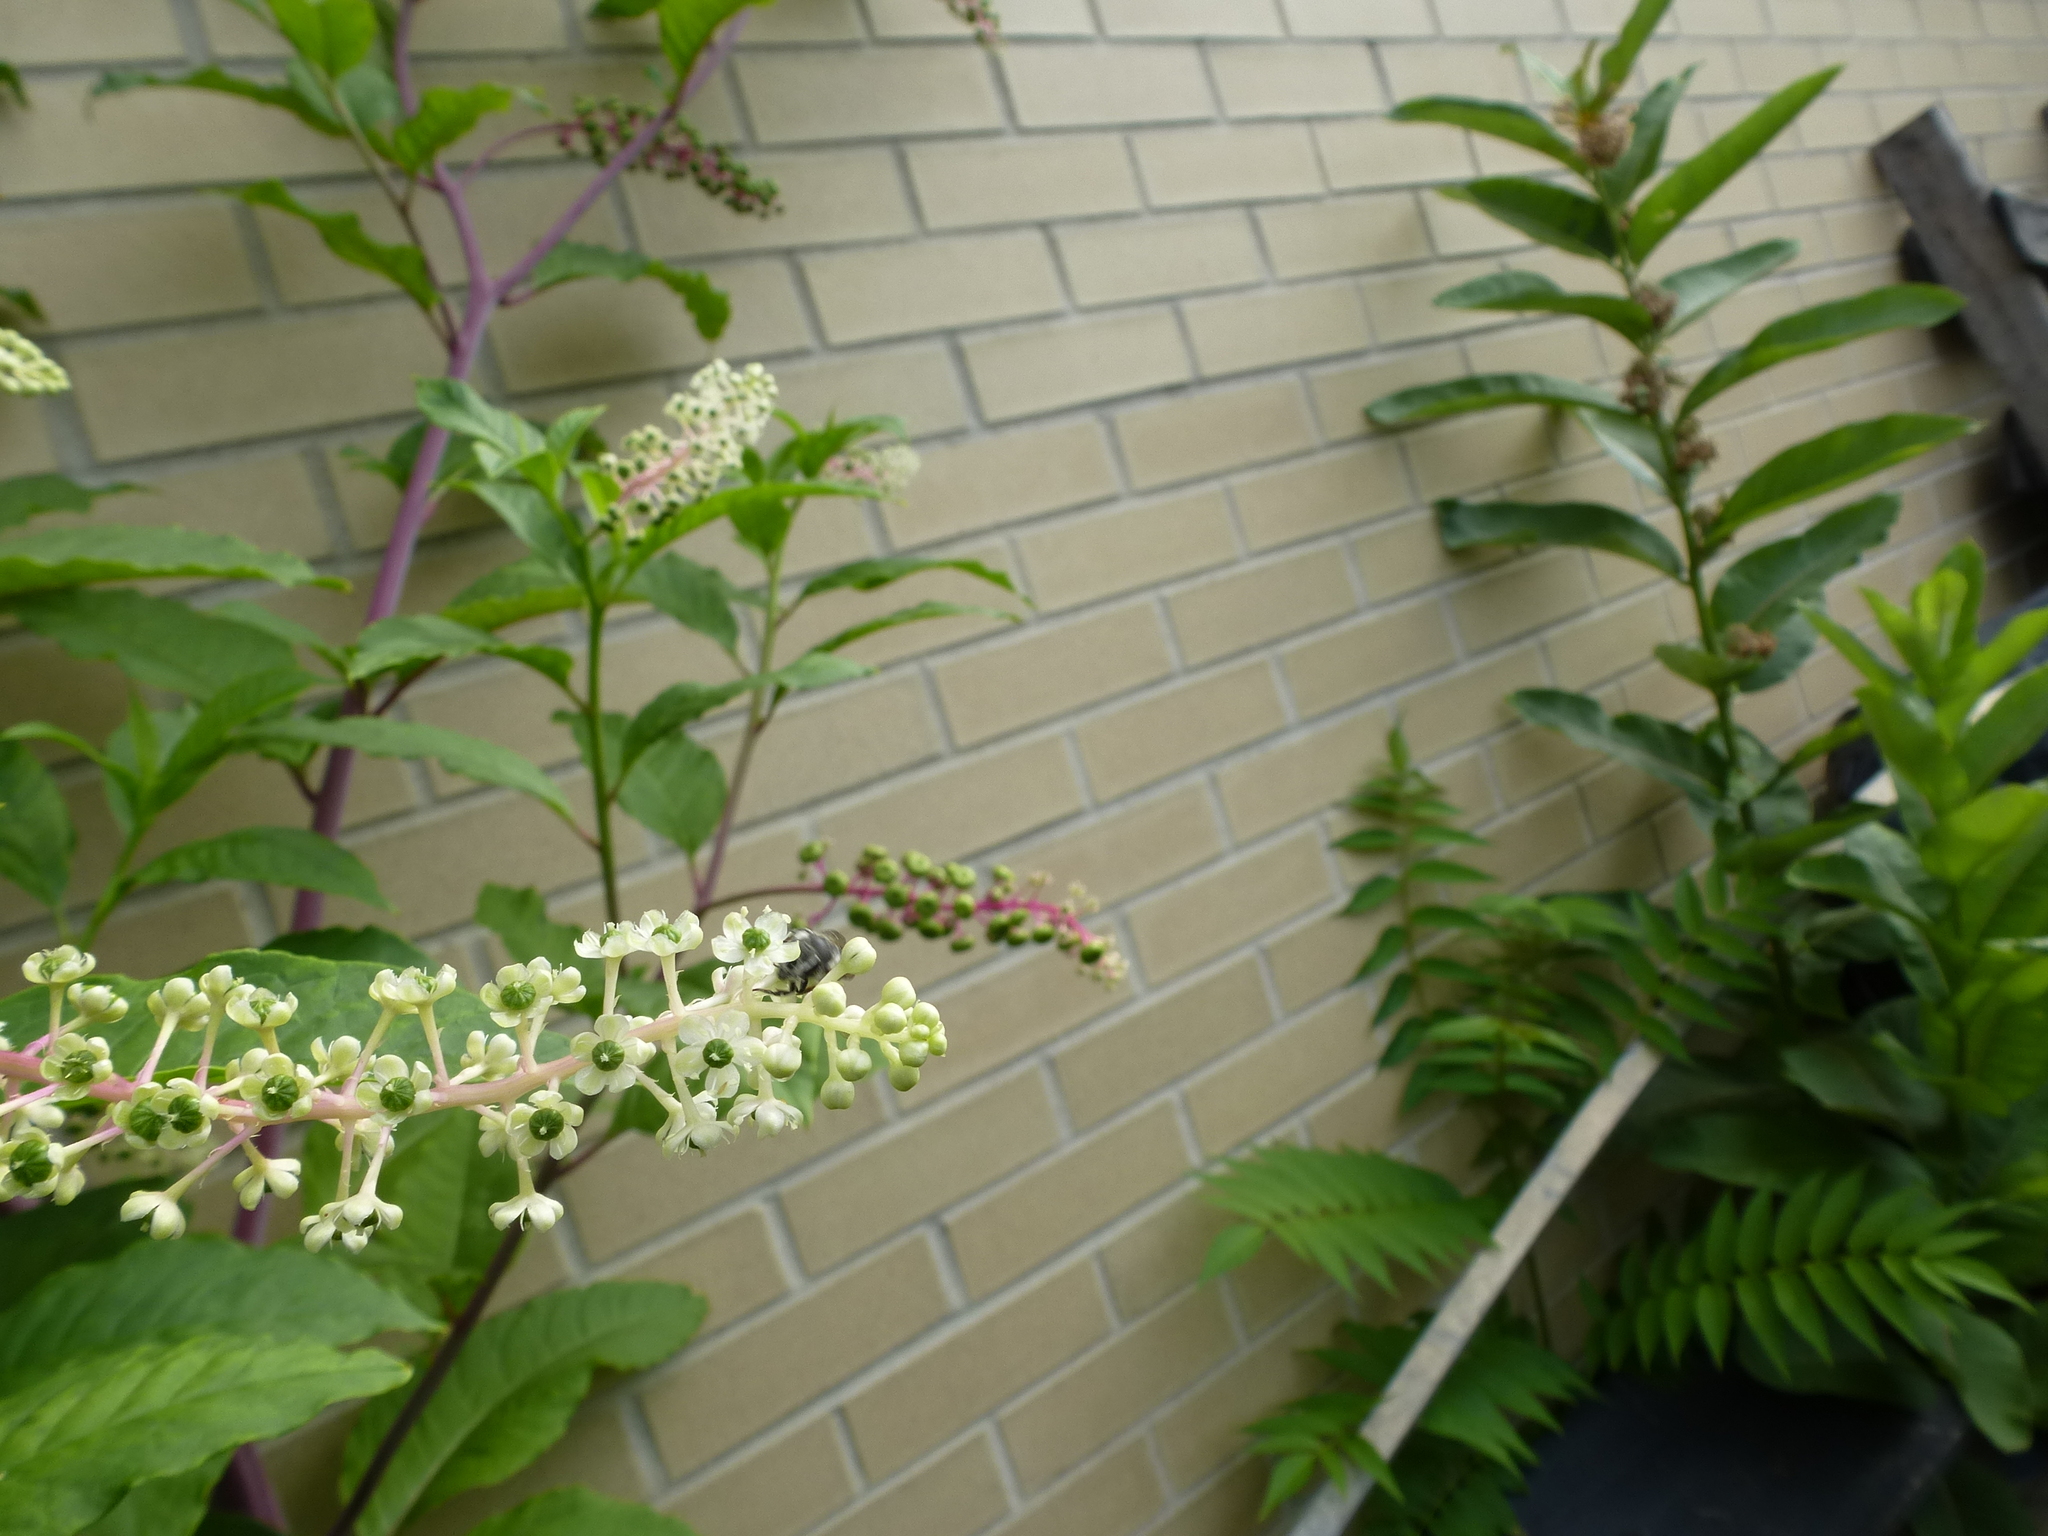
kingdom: Animalia
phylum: Arthropoda
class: Insecta
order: Hymenoptera
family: Megachilidae
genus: Megachile
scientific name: Megachile
